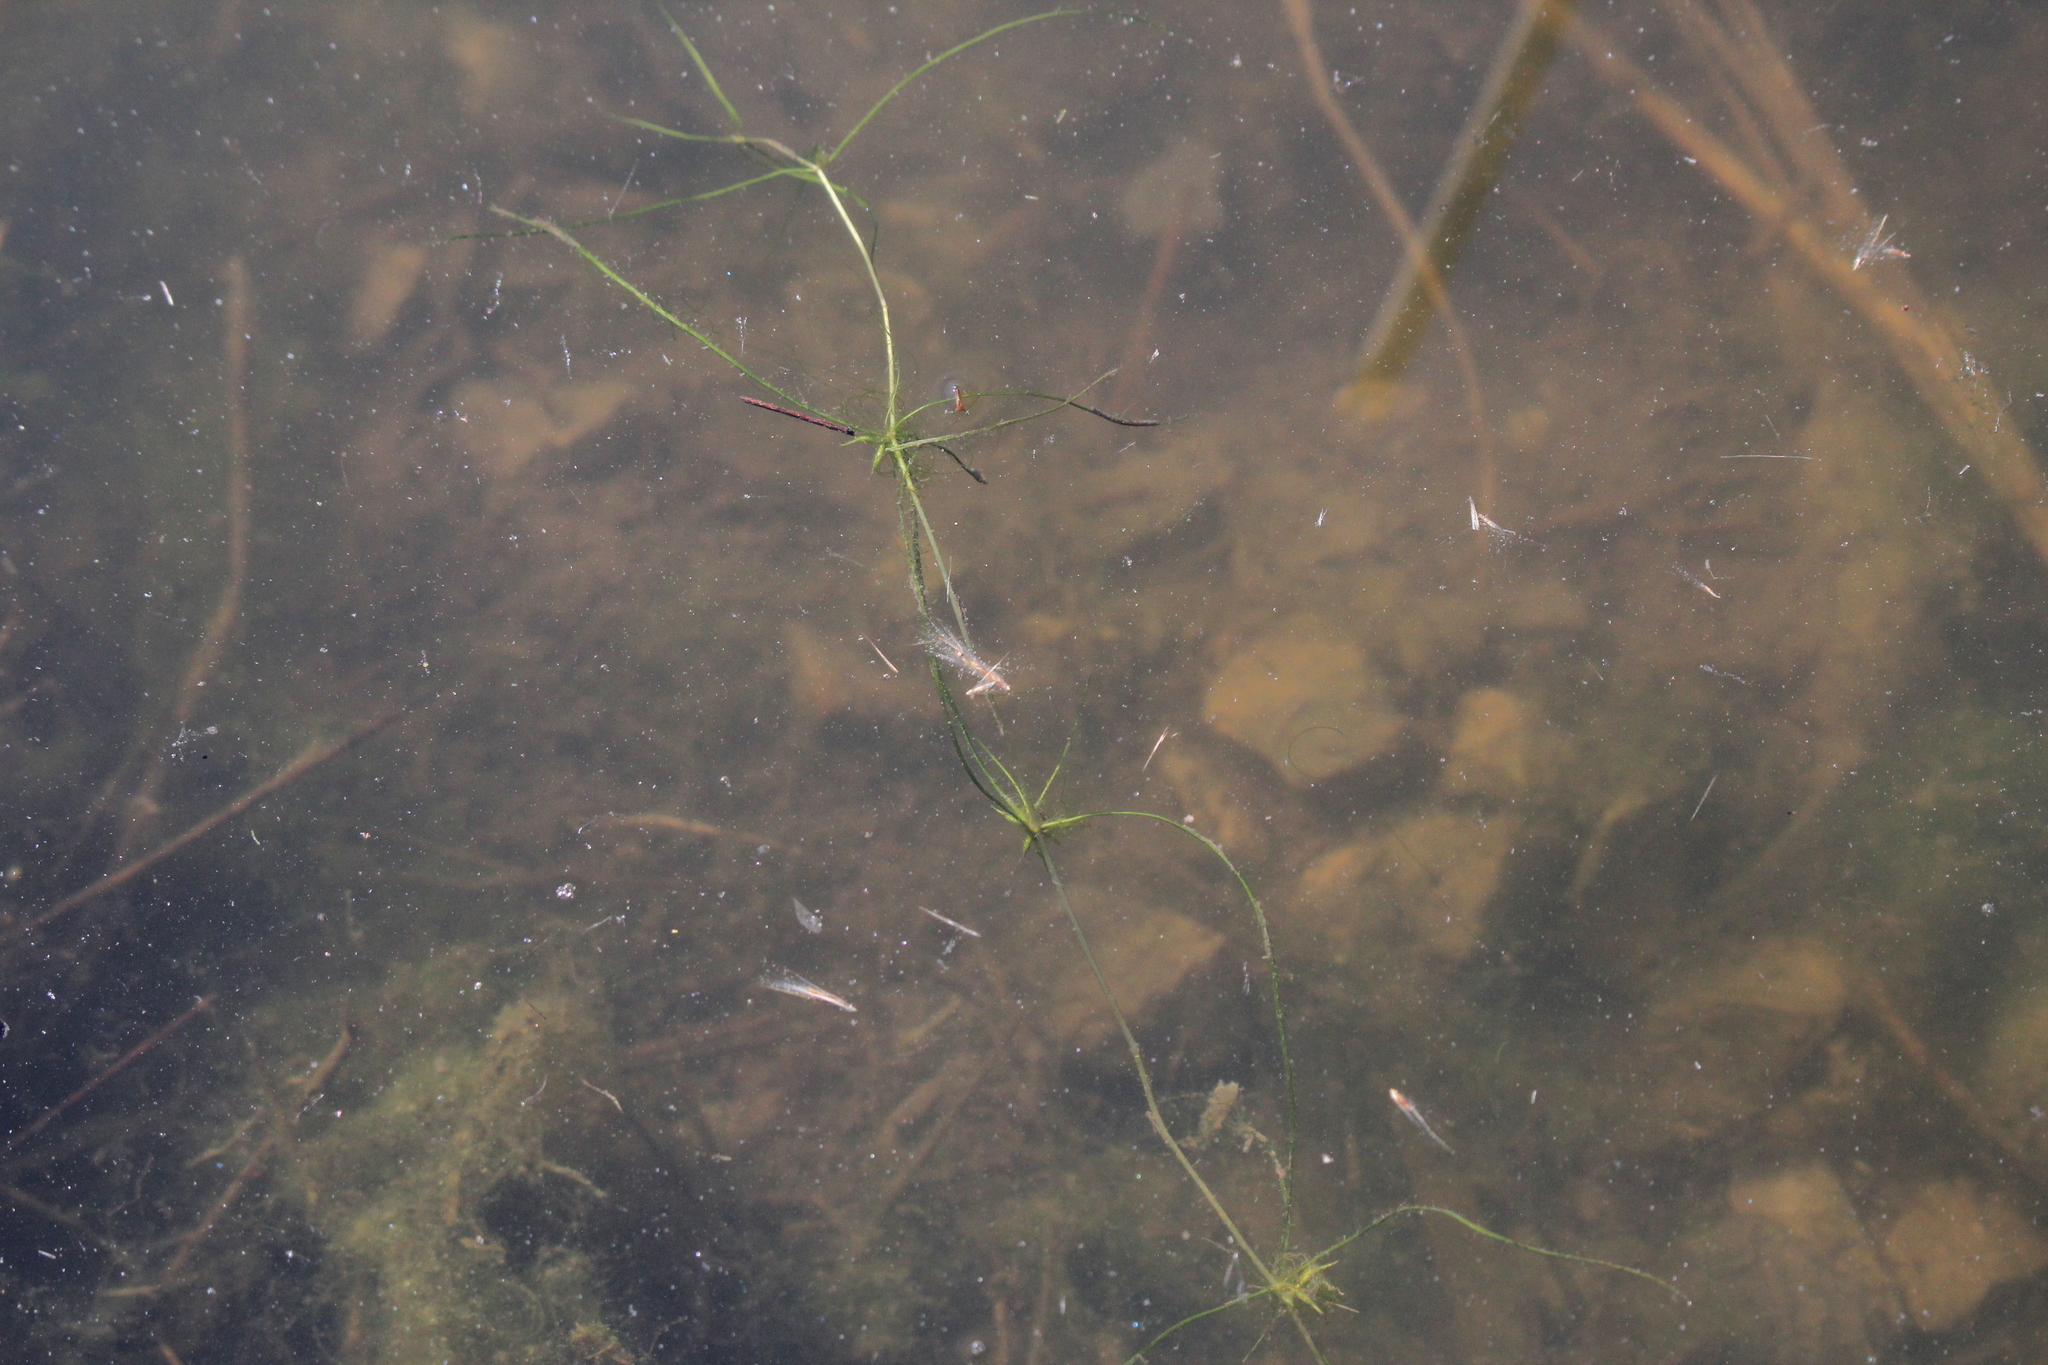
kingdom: Plantae
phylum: Tracheophyta
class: Liliopsida
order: Alismatales
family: Potamogetonaceae
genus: Zannichellia
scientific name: Zannichellia palustris
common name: Horned pondweed
